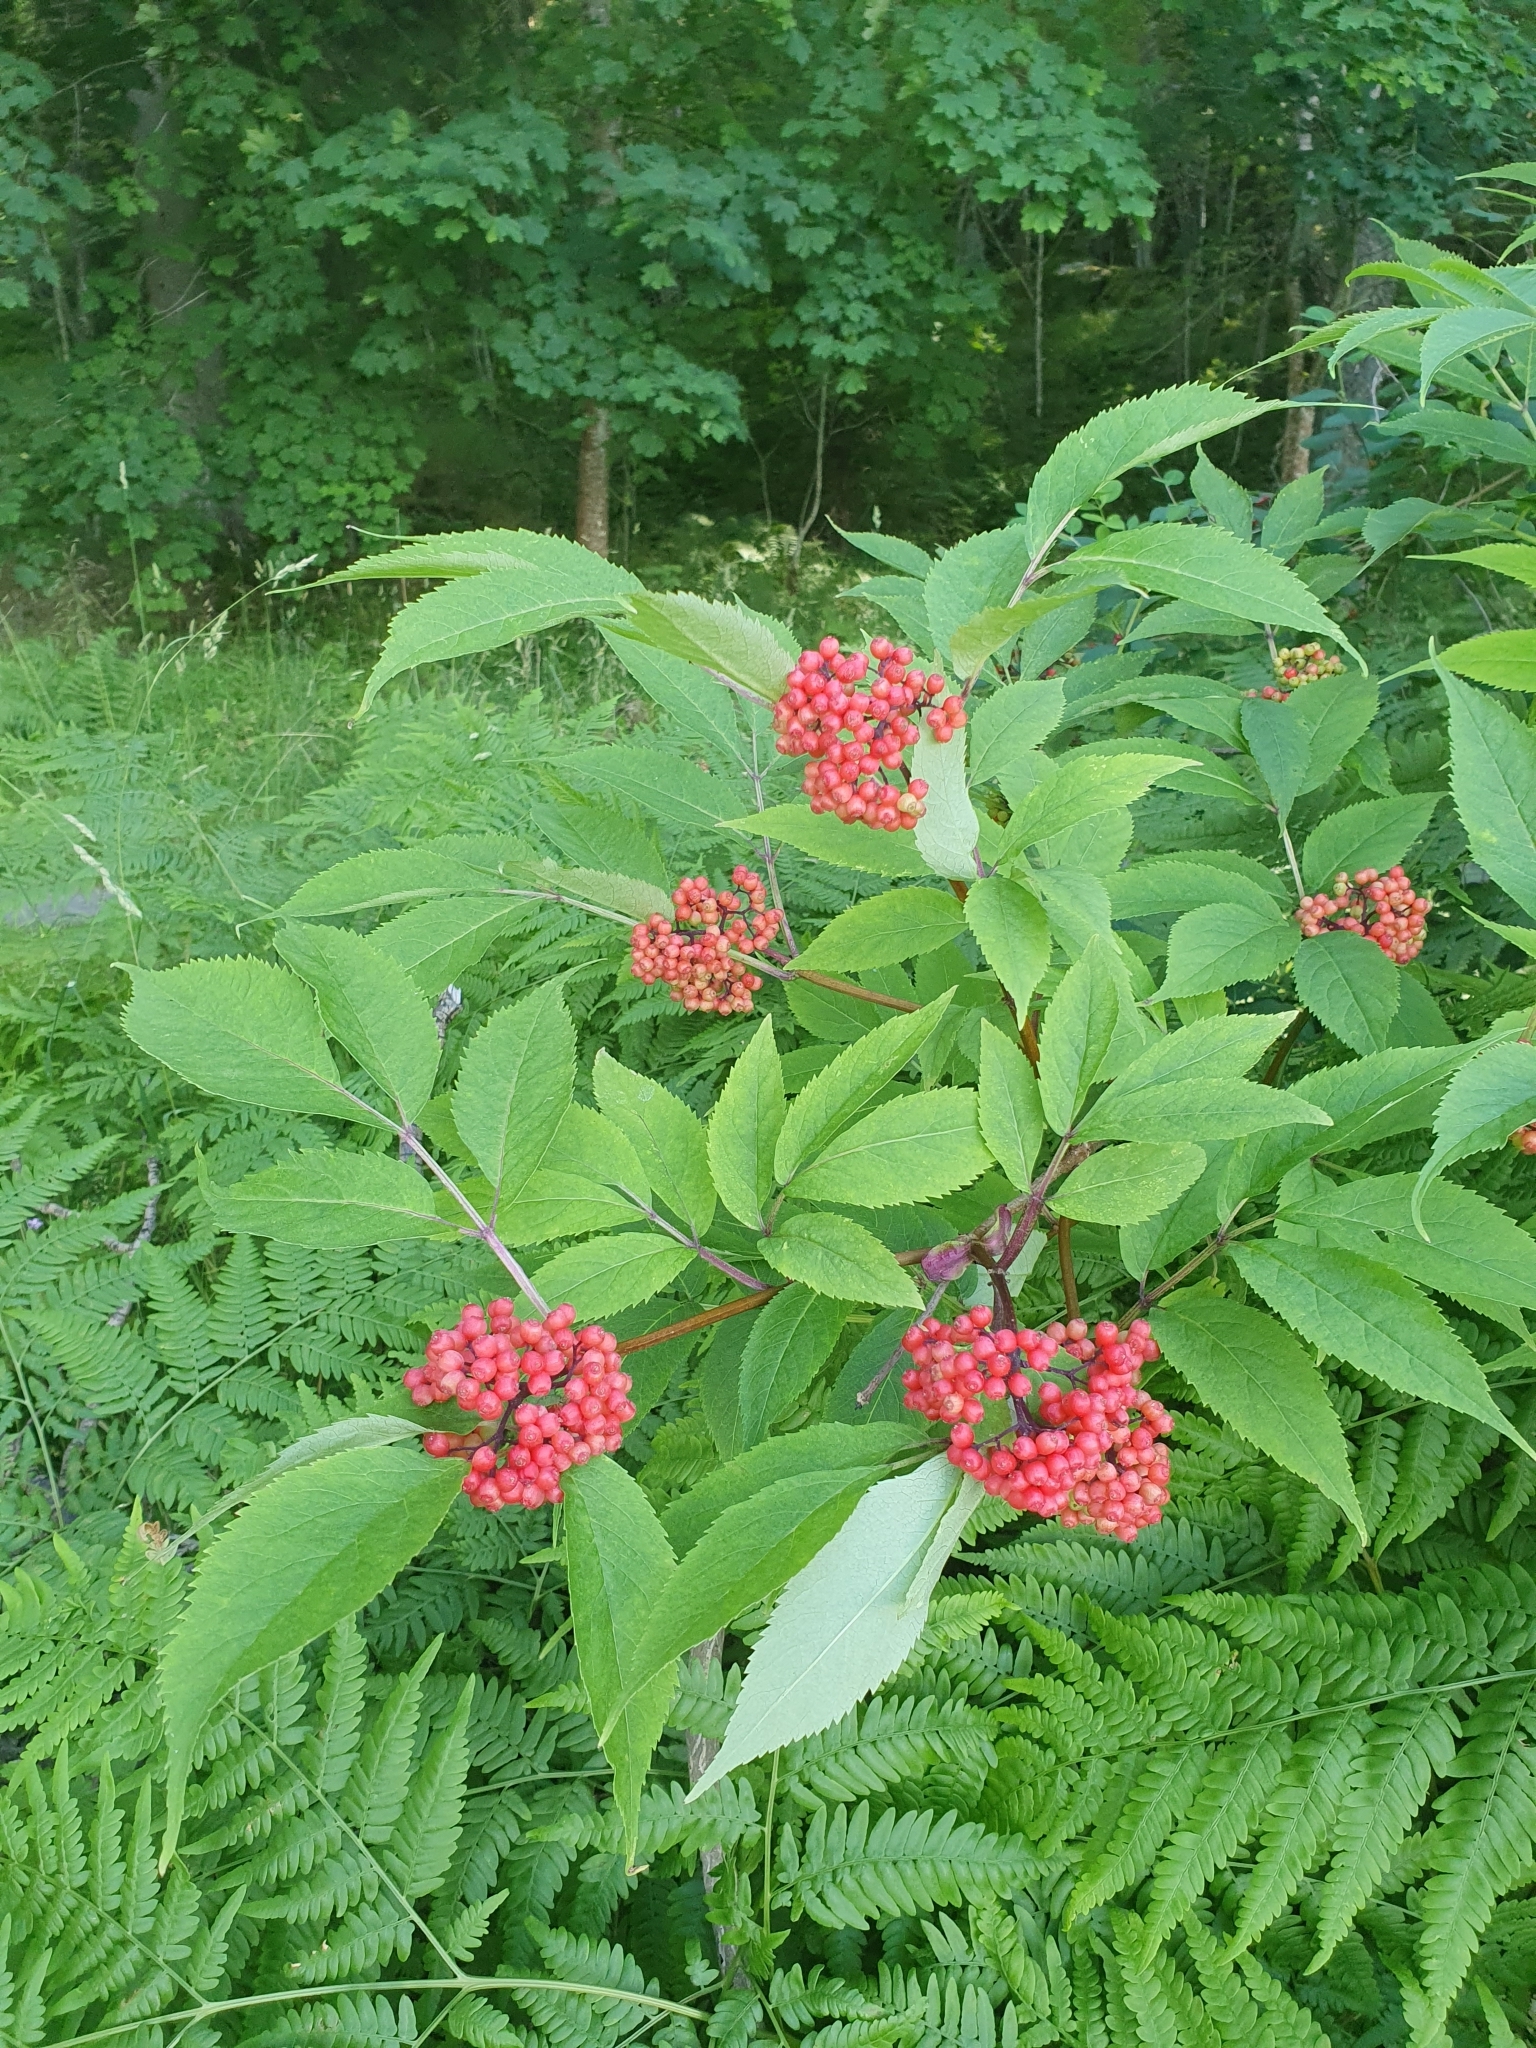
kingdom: Plantae
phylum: Tracheophyta
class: Magnoliopsida
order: Dipsacales
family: Viburnaceae
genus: Sambucus
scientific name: Sambucus racemosa
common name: Red-berried elder
